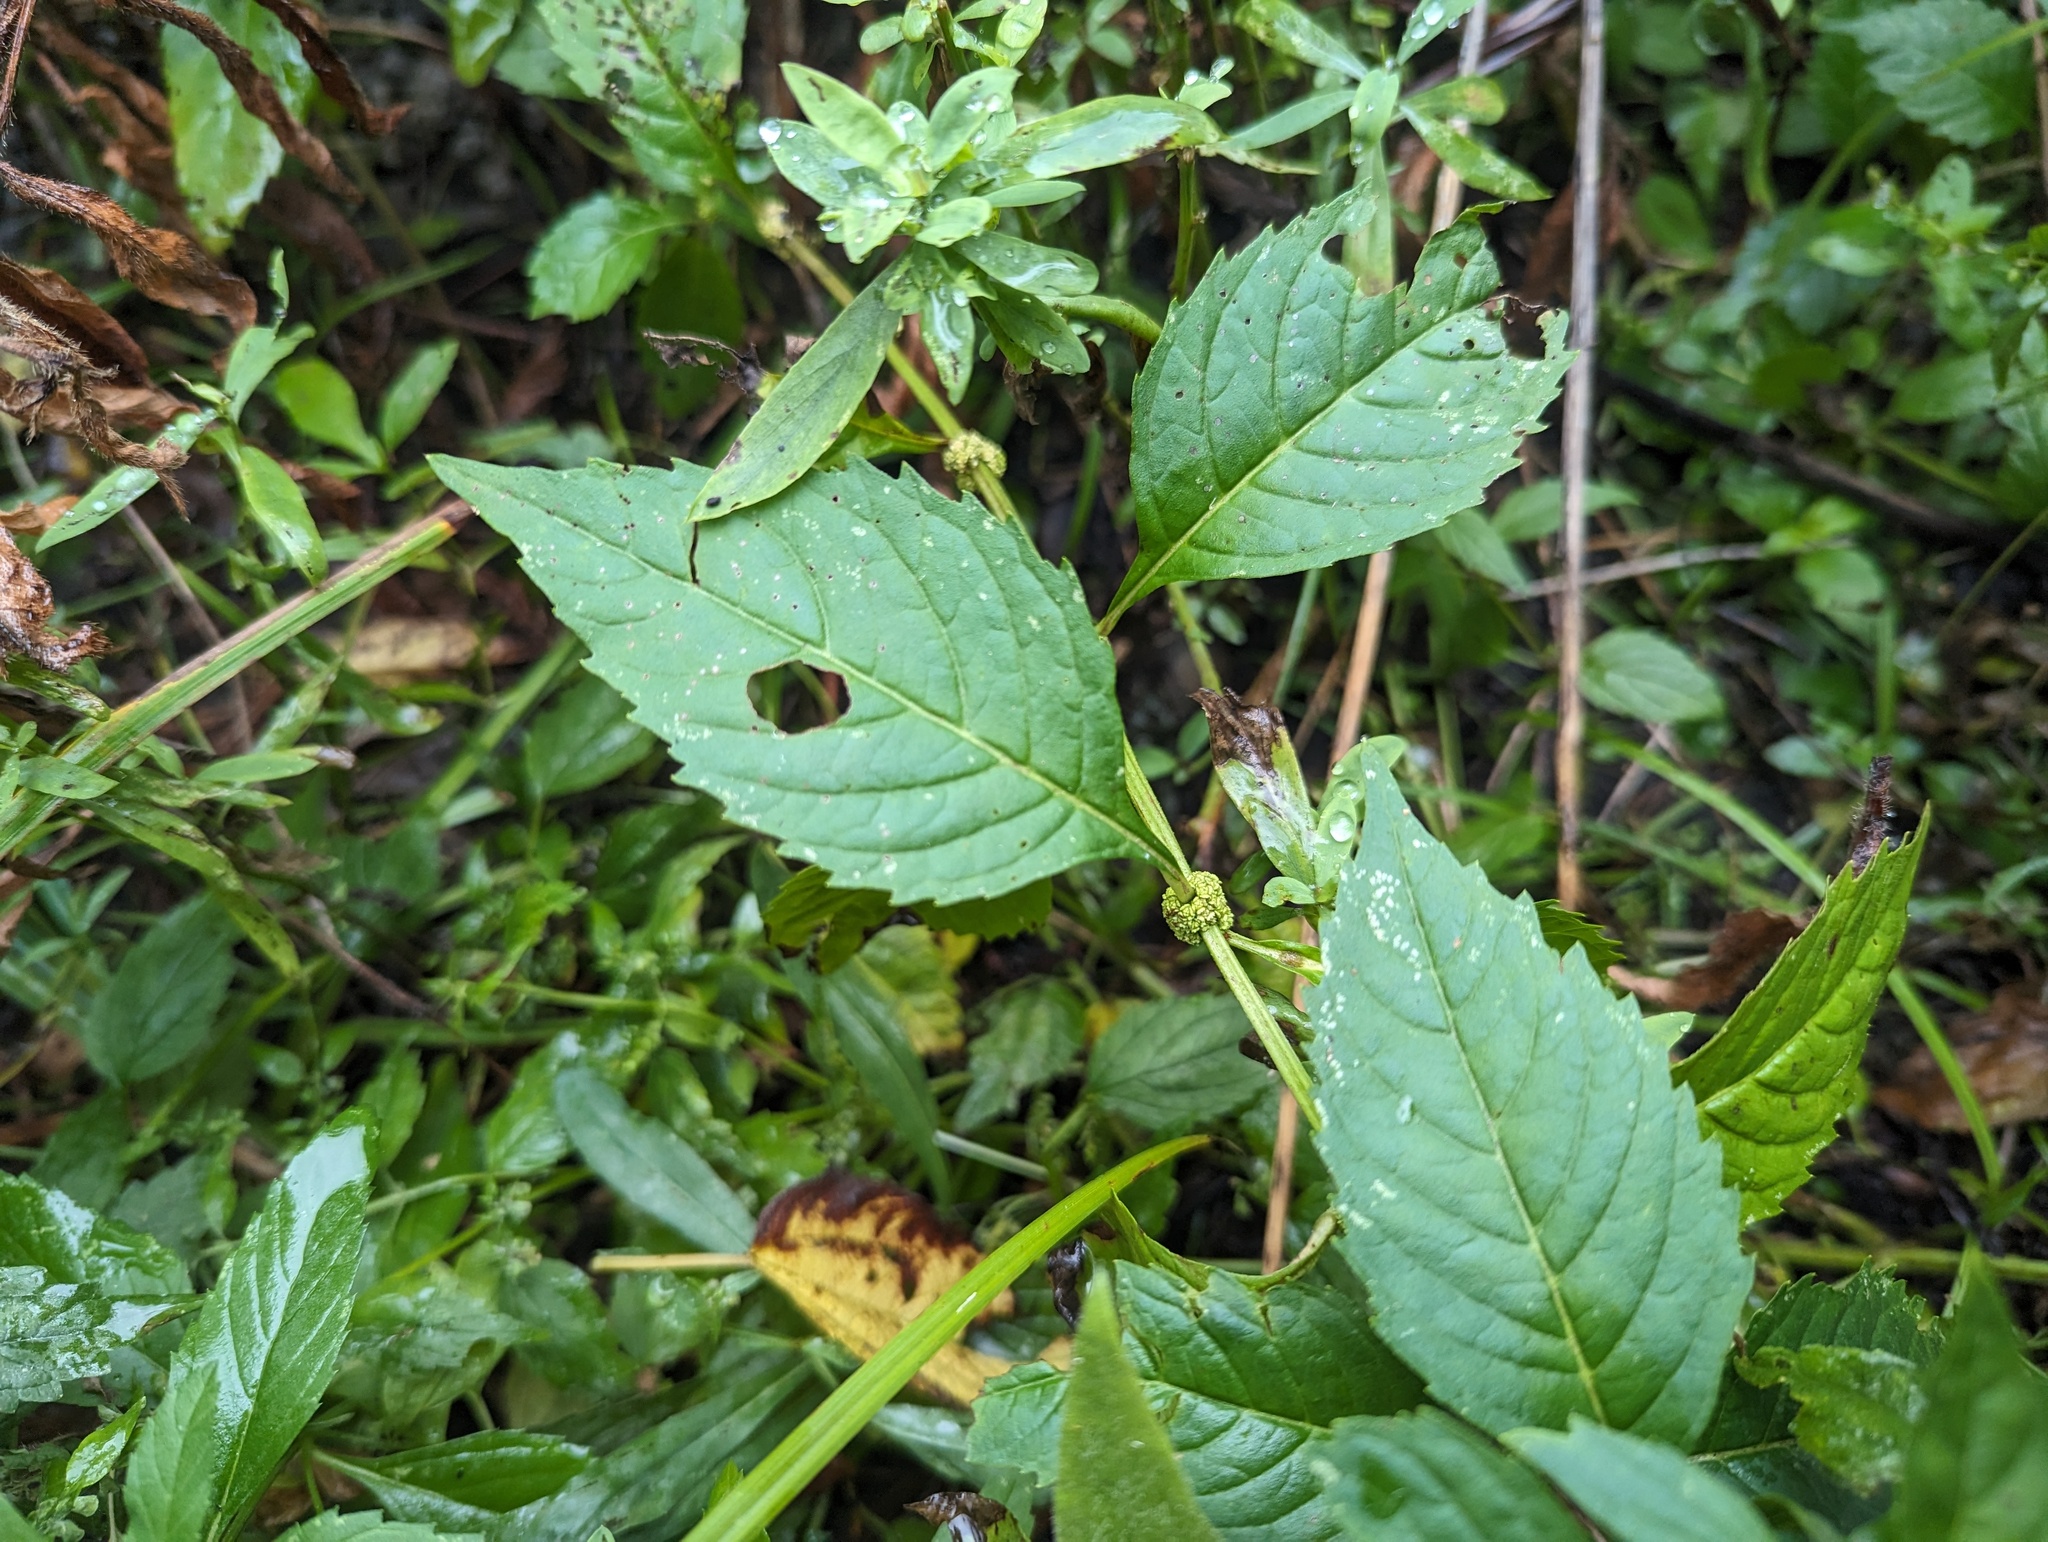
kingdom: Plantae
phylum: Tracheophyta
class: Magnoliopsida
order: Lamiales
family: Lamiaceae
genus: Lycopus
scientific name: Lycopus virginicus
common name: Bugleweed
